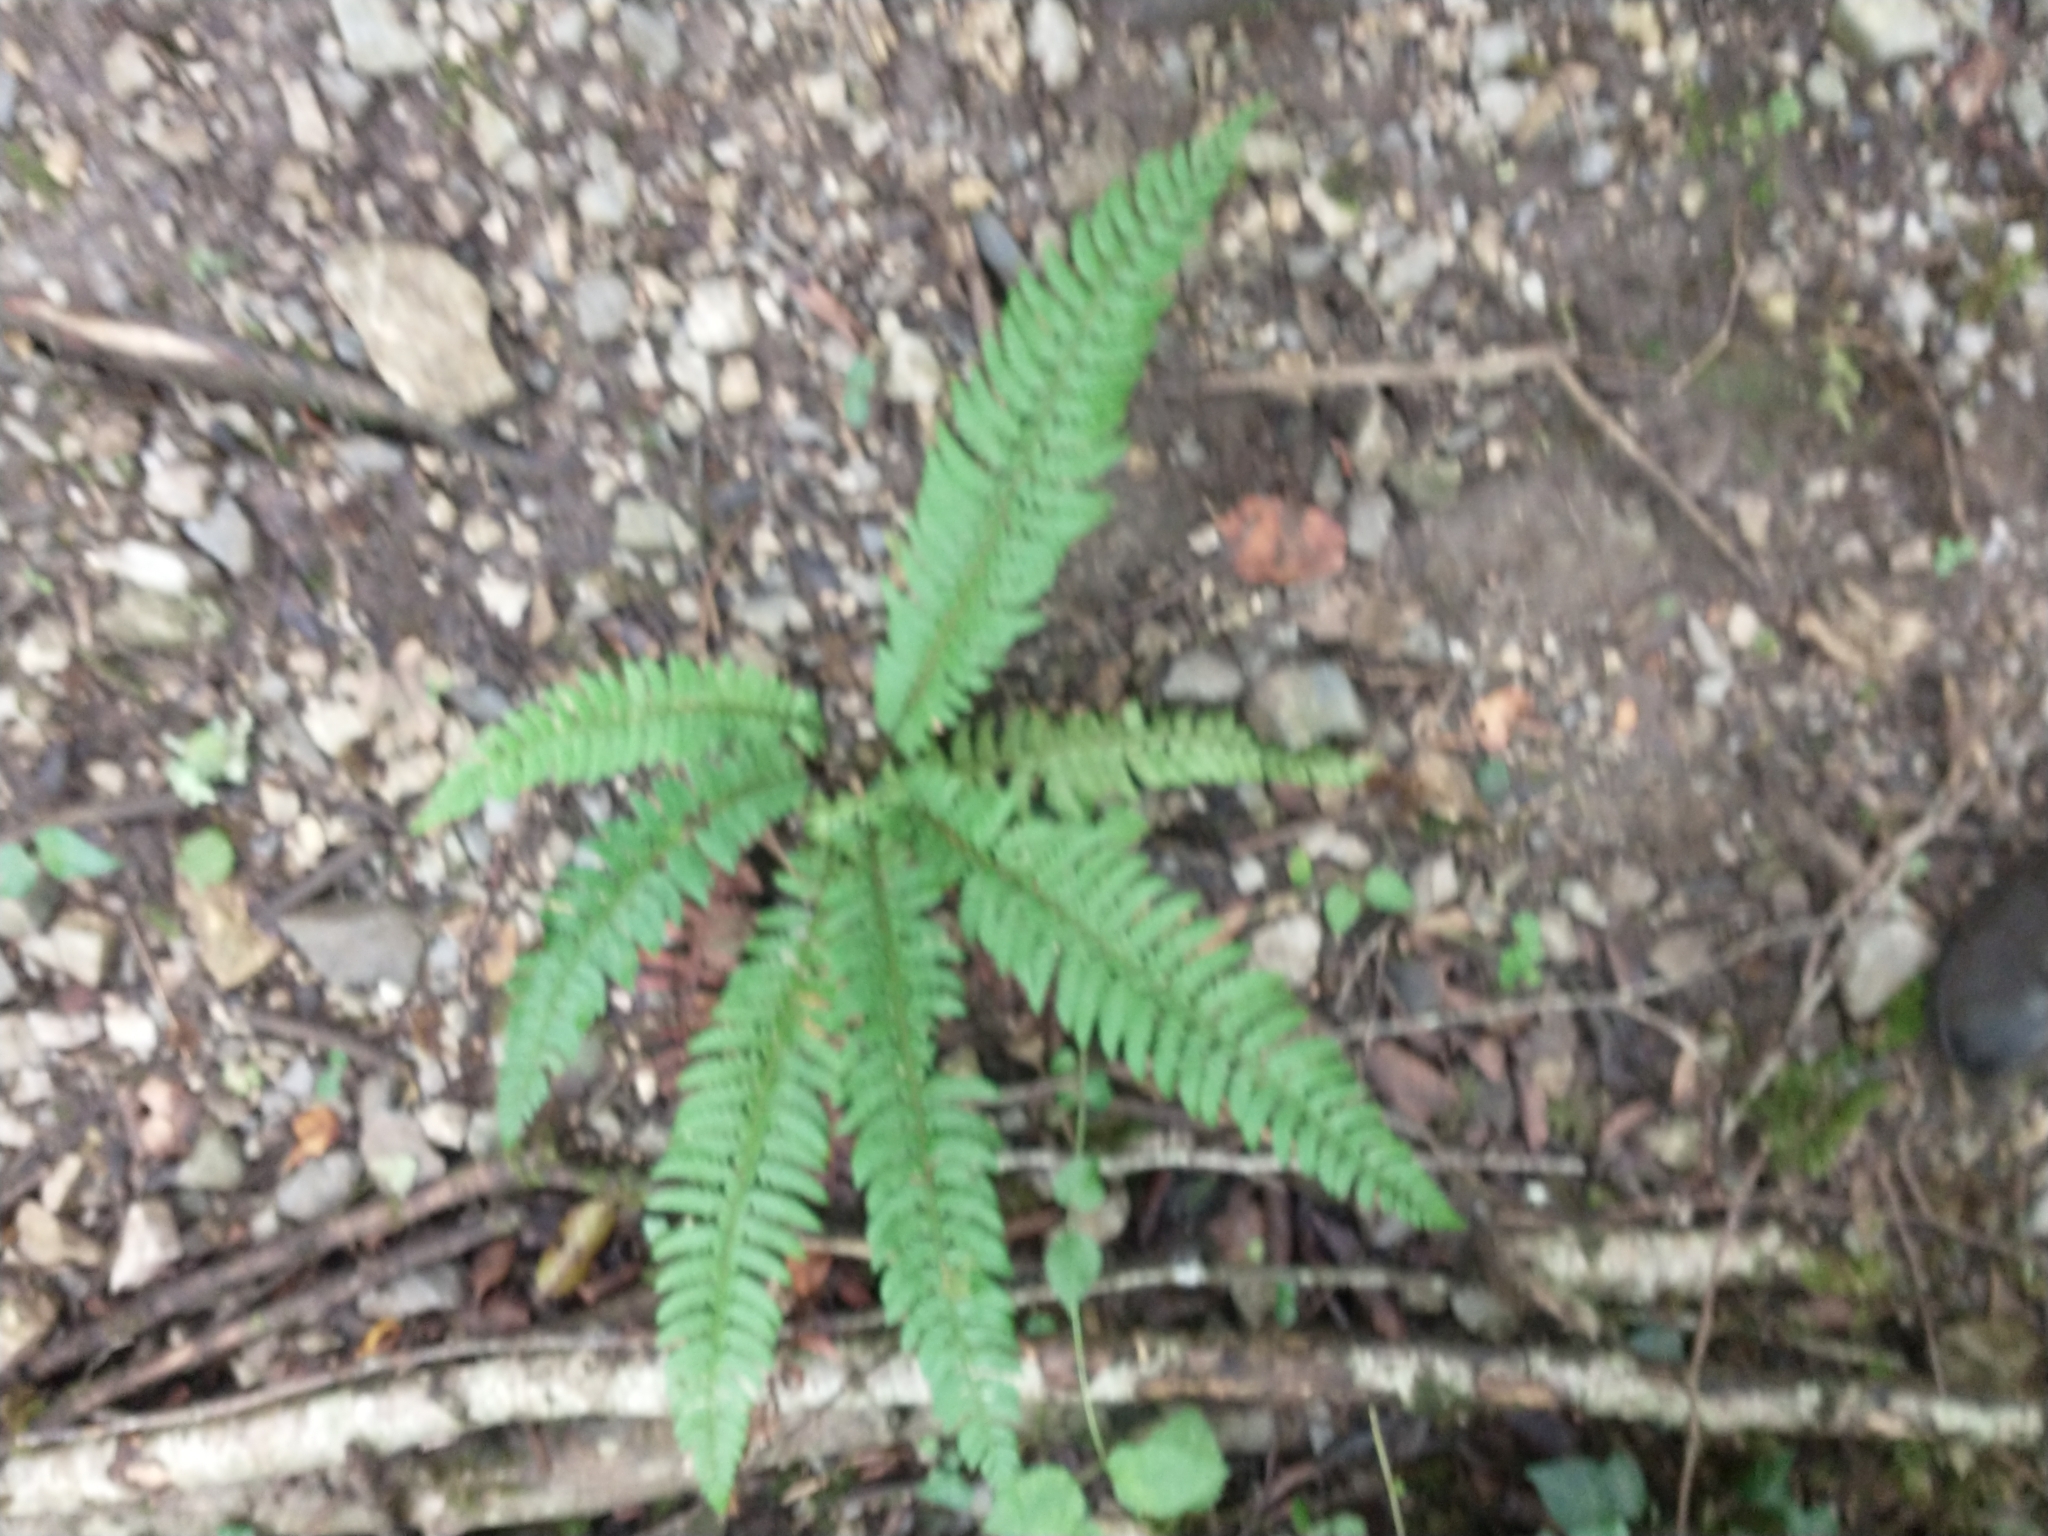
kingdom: Plantae
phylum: Tracheophyta
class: Polypodiopsida
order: Polypodiales
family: Dryopteridaceae
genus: Polystichum
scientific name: Polystichum aculeatum
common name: Hard shield-fern
